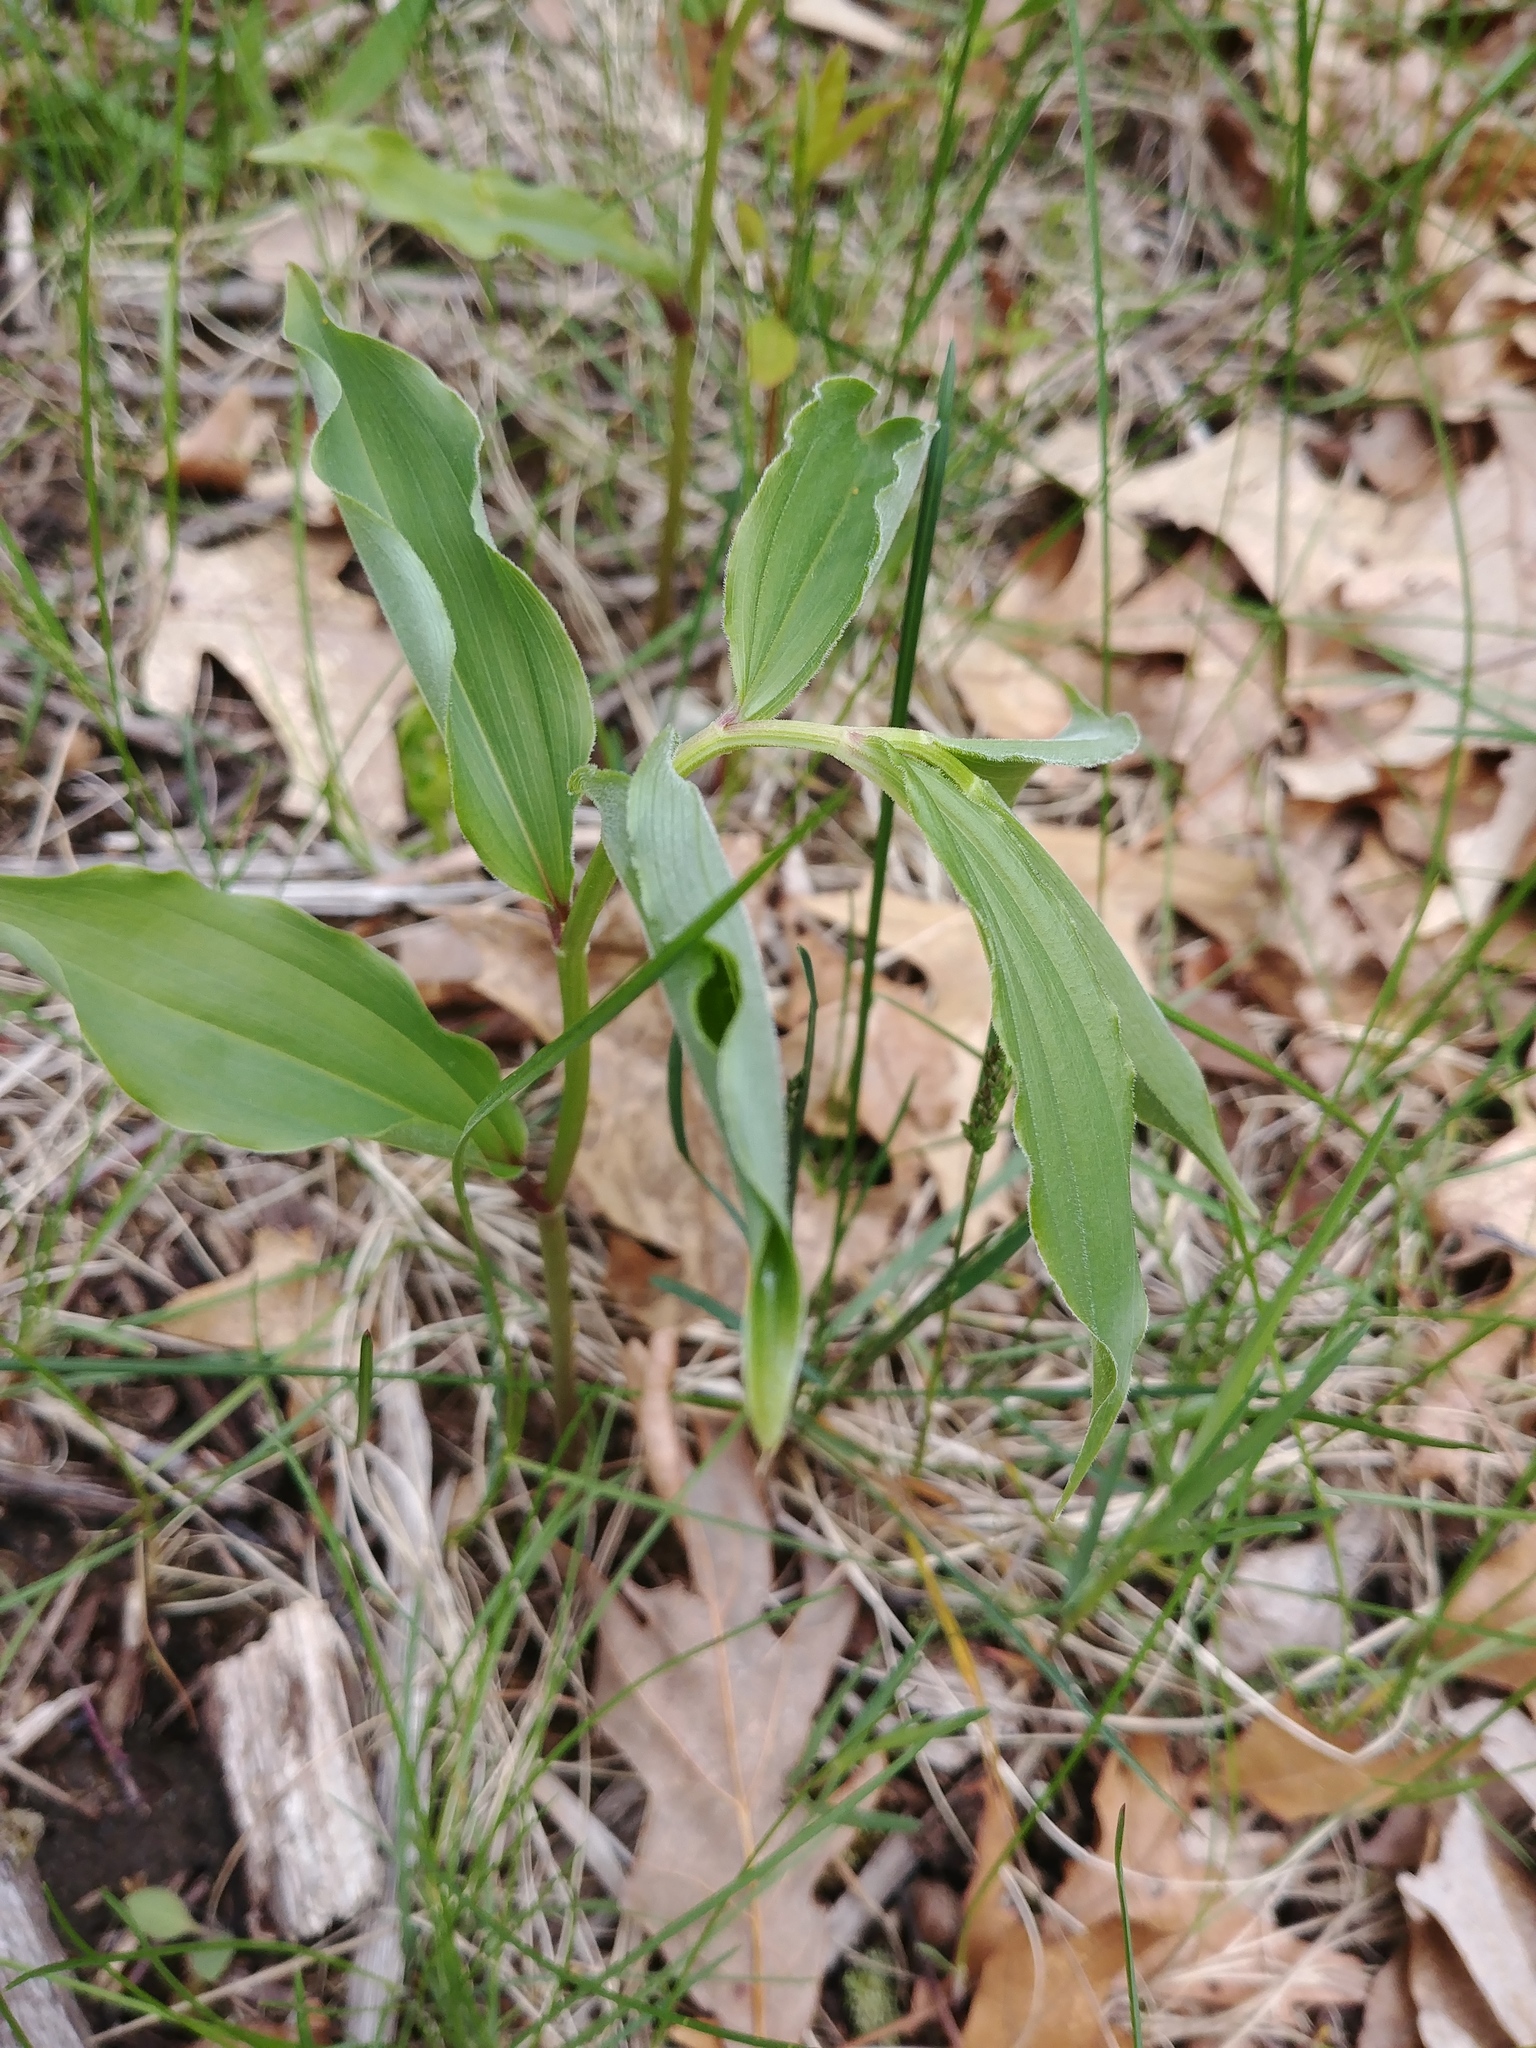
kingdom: Plantae
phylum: Tracheophyta
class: Liliopsida
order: Asparagales
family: Asparagaceae
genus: Maianthemum
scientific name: Maianthemum racemosum
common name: False spikenard
